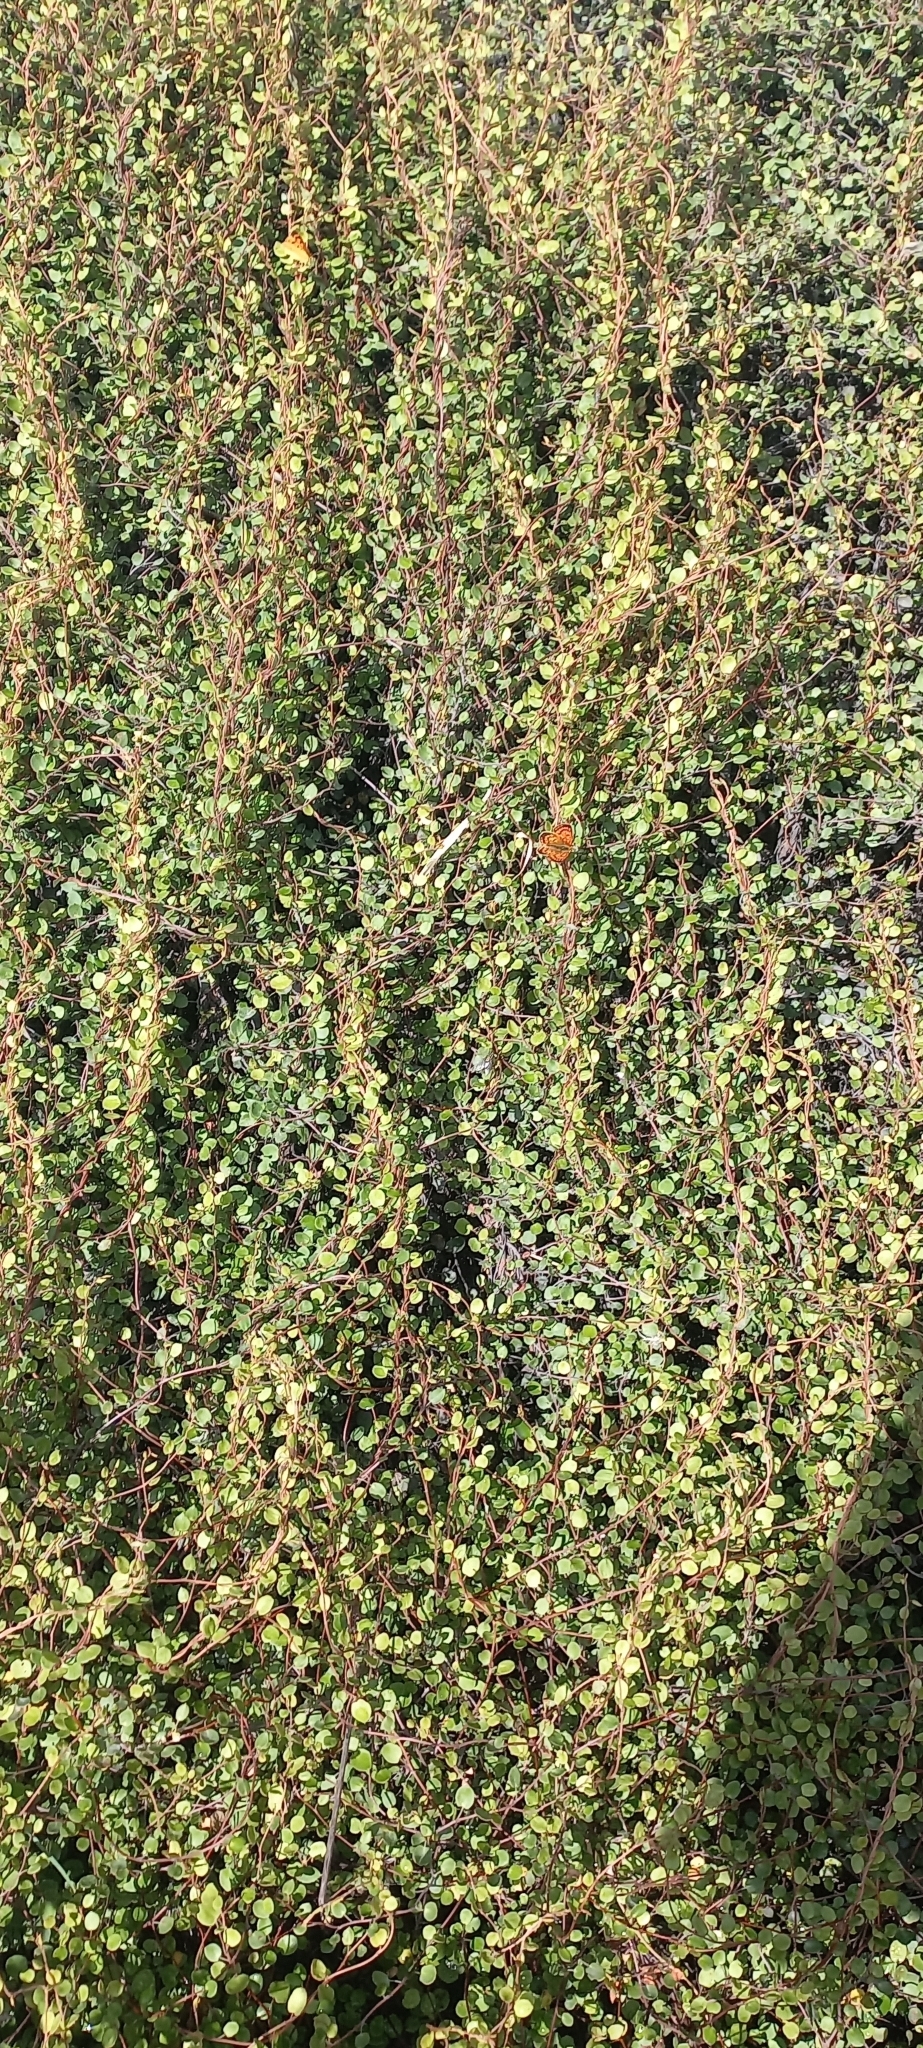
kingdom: Animalia
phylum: Arthropoda
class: Insecta
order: Lepidoptera
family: Lycaenidae
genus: Lycaena
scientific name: Lycaena
